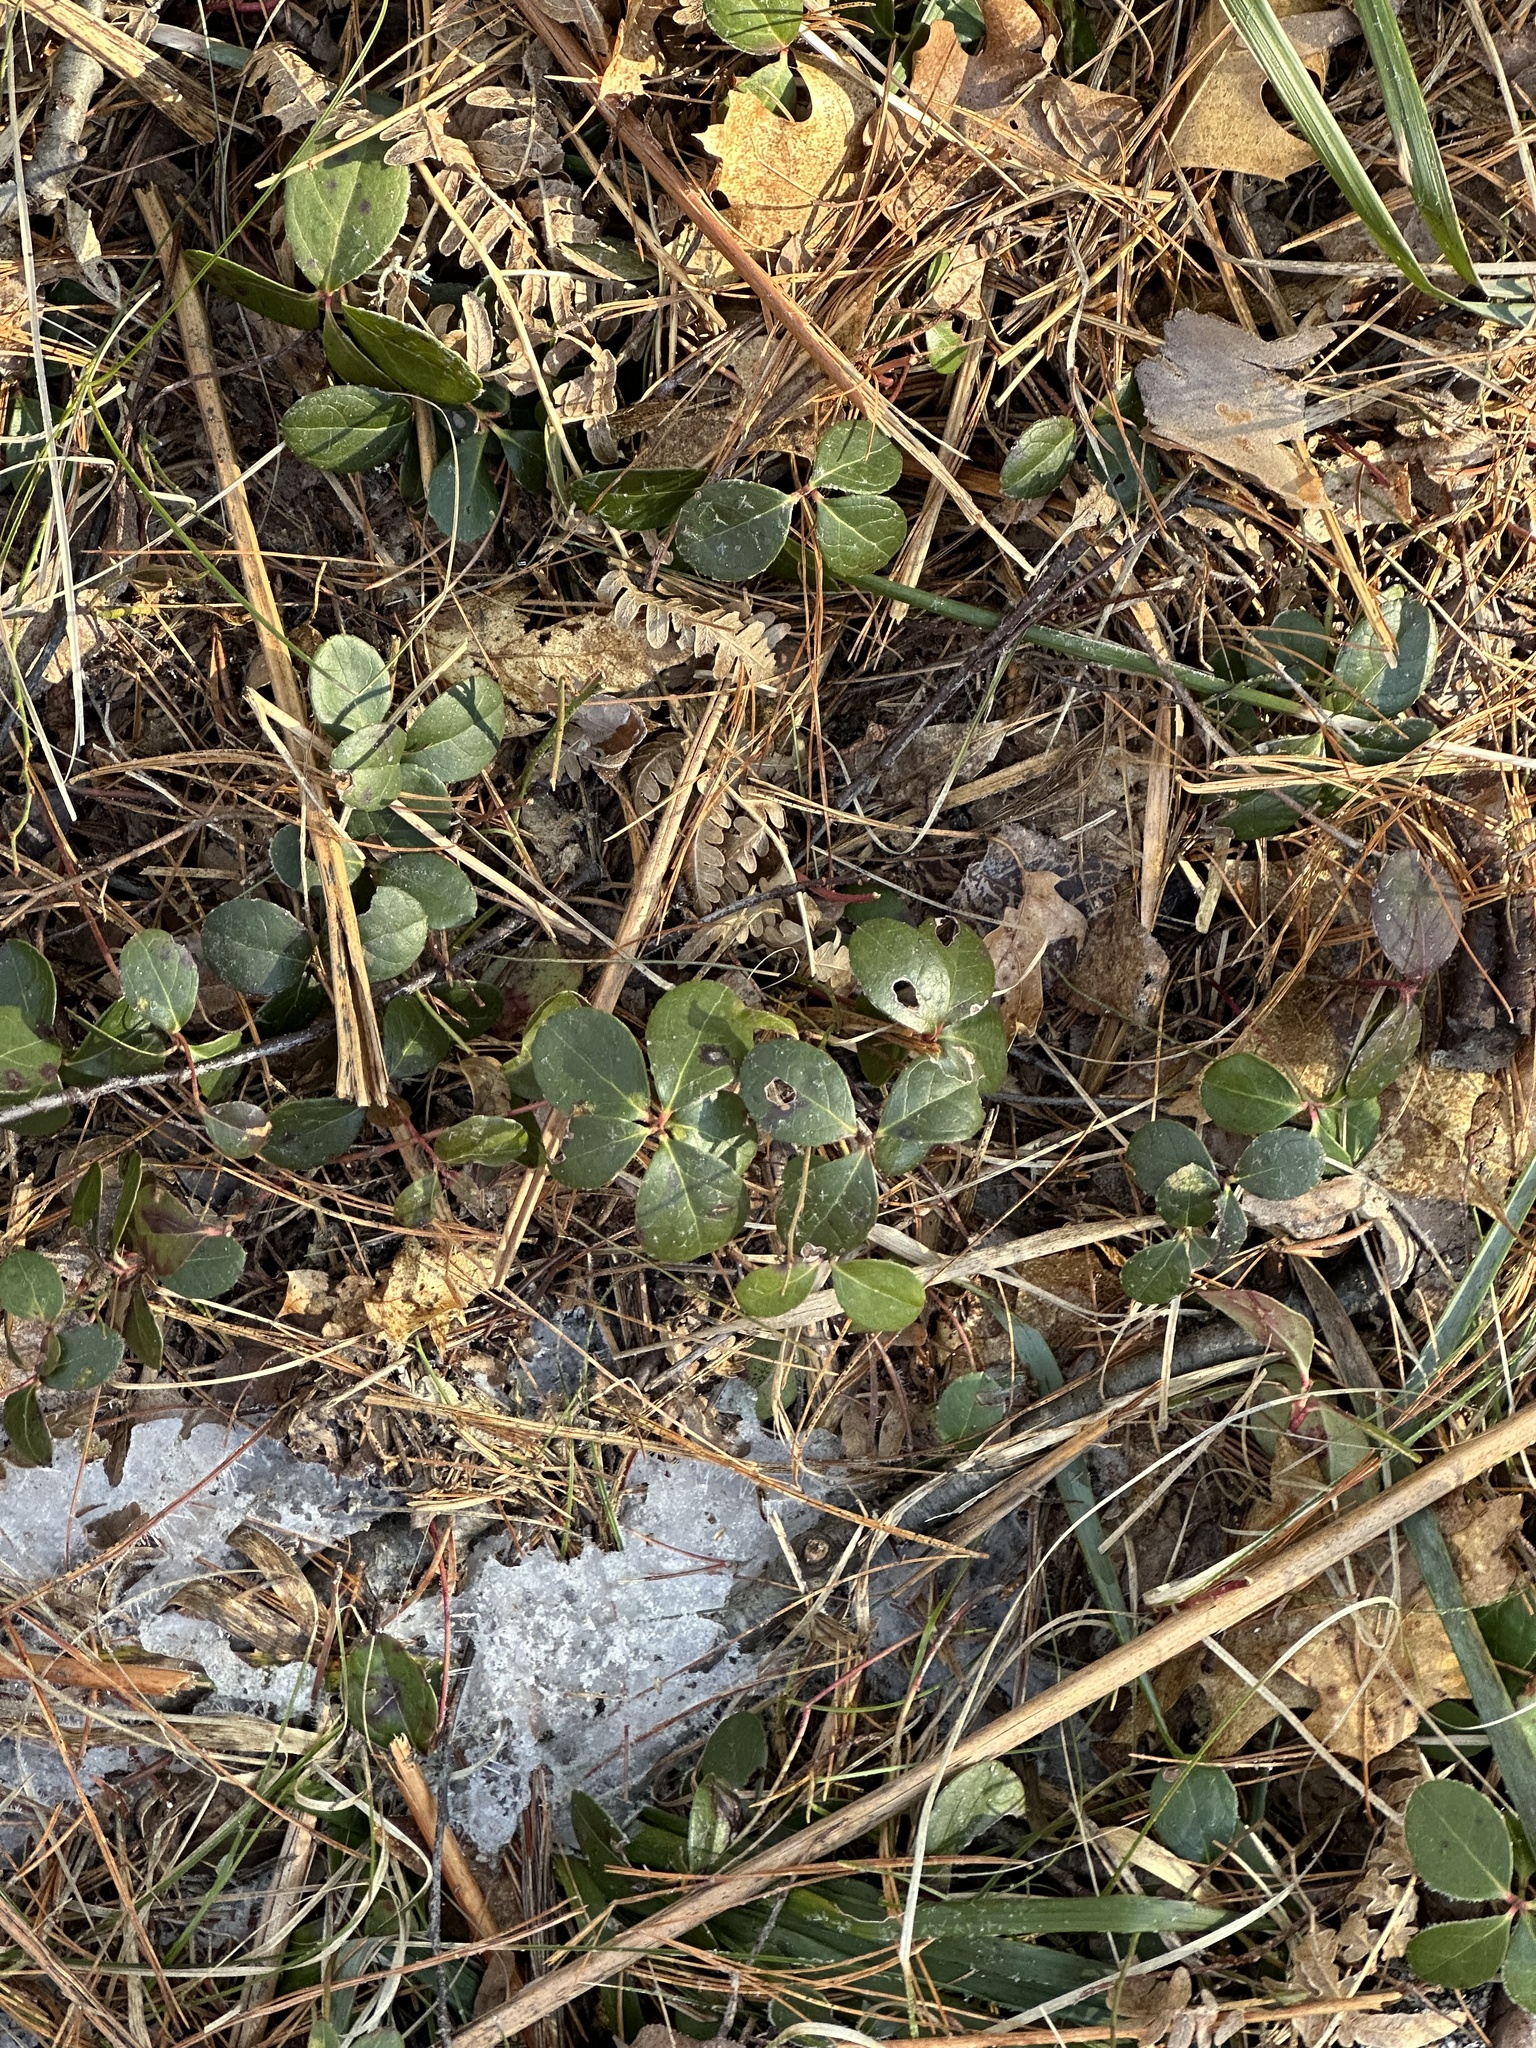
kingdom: Plantae
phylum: Tracheophyta
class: Magnoliopsida
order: Ericales
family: Ericaceae
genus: Gaultheria
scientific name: Gaultheria procumbens
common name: Checkerberry
